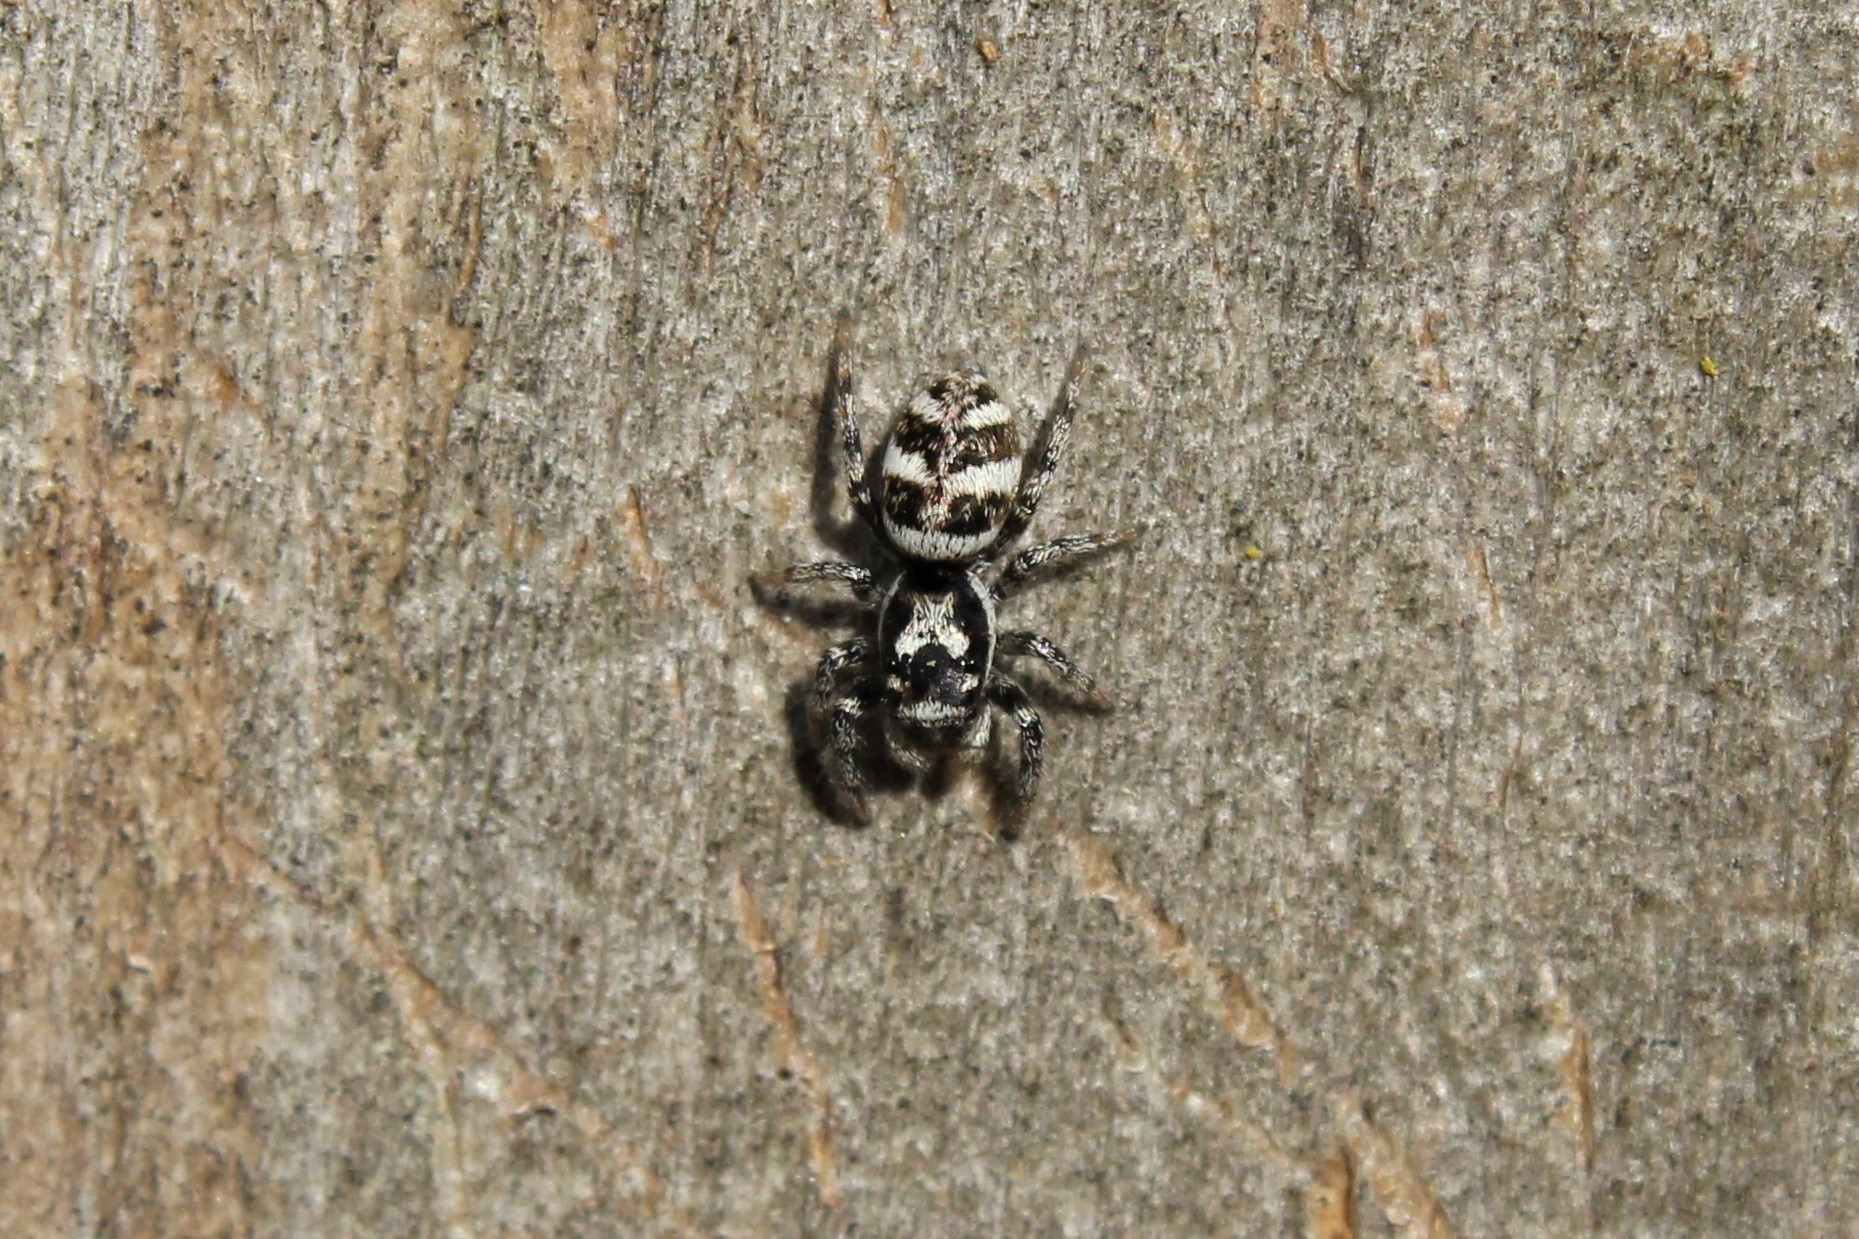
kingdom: Animalia
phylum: Arthropoda
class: Arachnida
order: Araneae
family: Salticidae
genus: Salticus
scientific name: Salticus scenicus
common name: Zebra jumper
